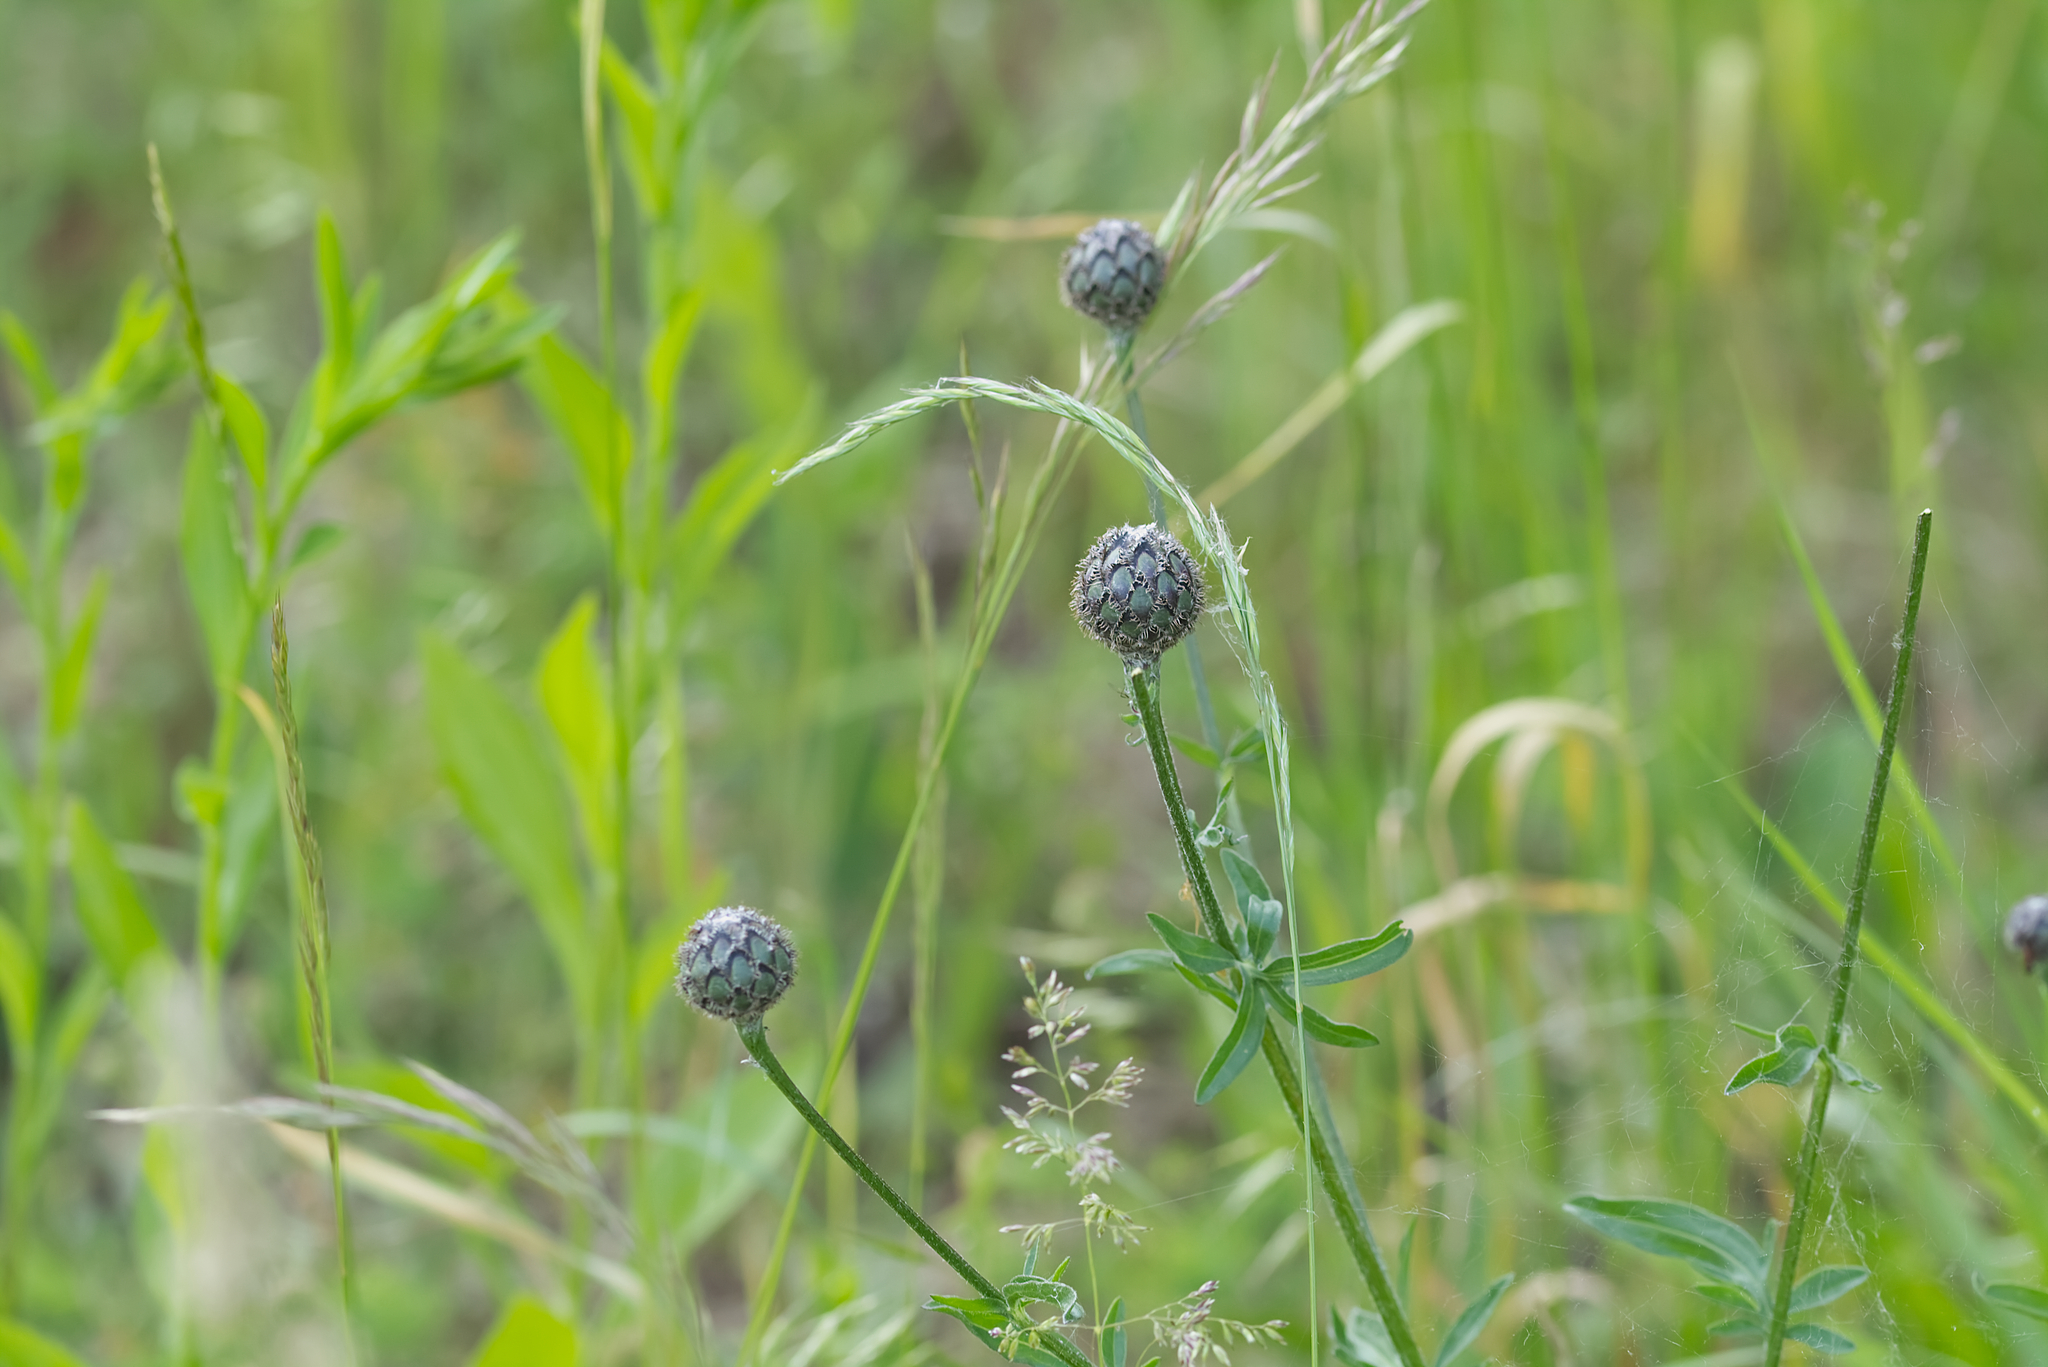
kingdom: Plantae
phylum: Tracheophyta
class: Magnoliopsida
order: Asterales
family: Asteraceae
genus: Centaurea
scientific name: Centaurea scabiosa
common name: Greater knapweed
